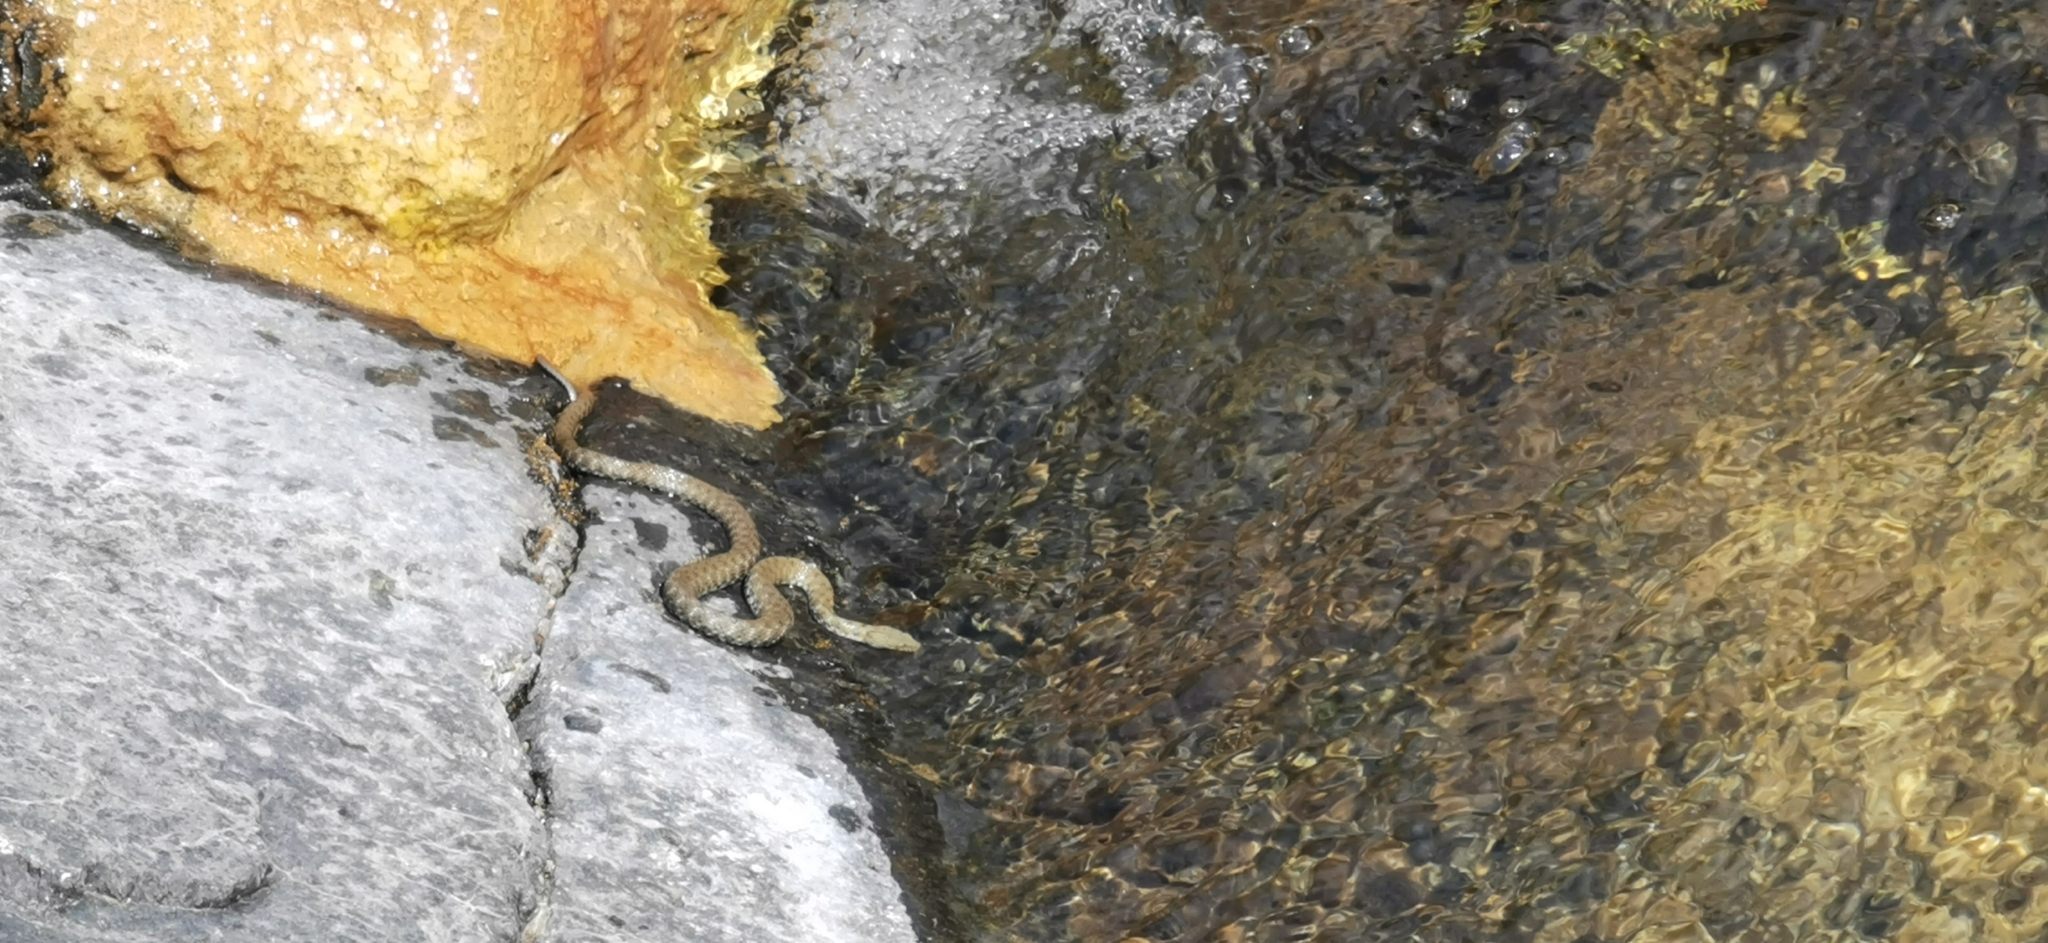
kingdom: Animalia
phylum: Chordata
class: Squamata
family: Colubridae
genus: Natrix
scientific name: Natrix tessellata
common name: Dice snake
